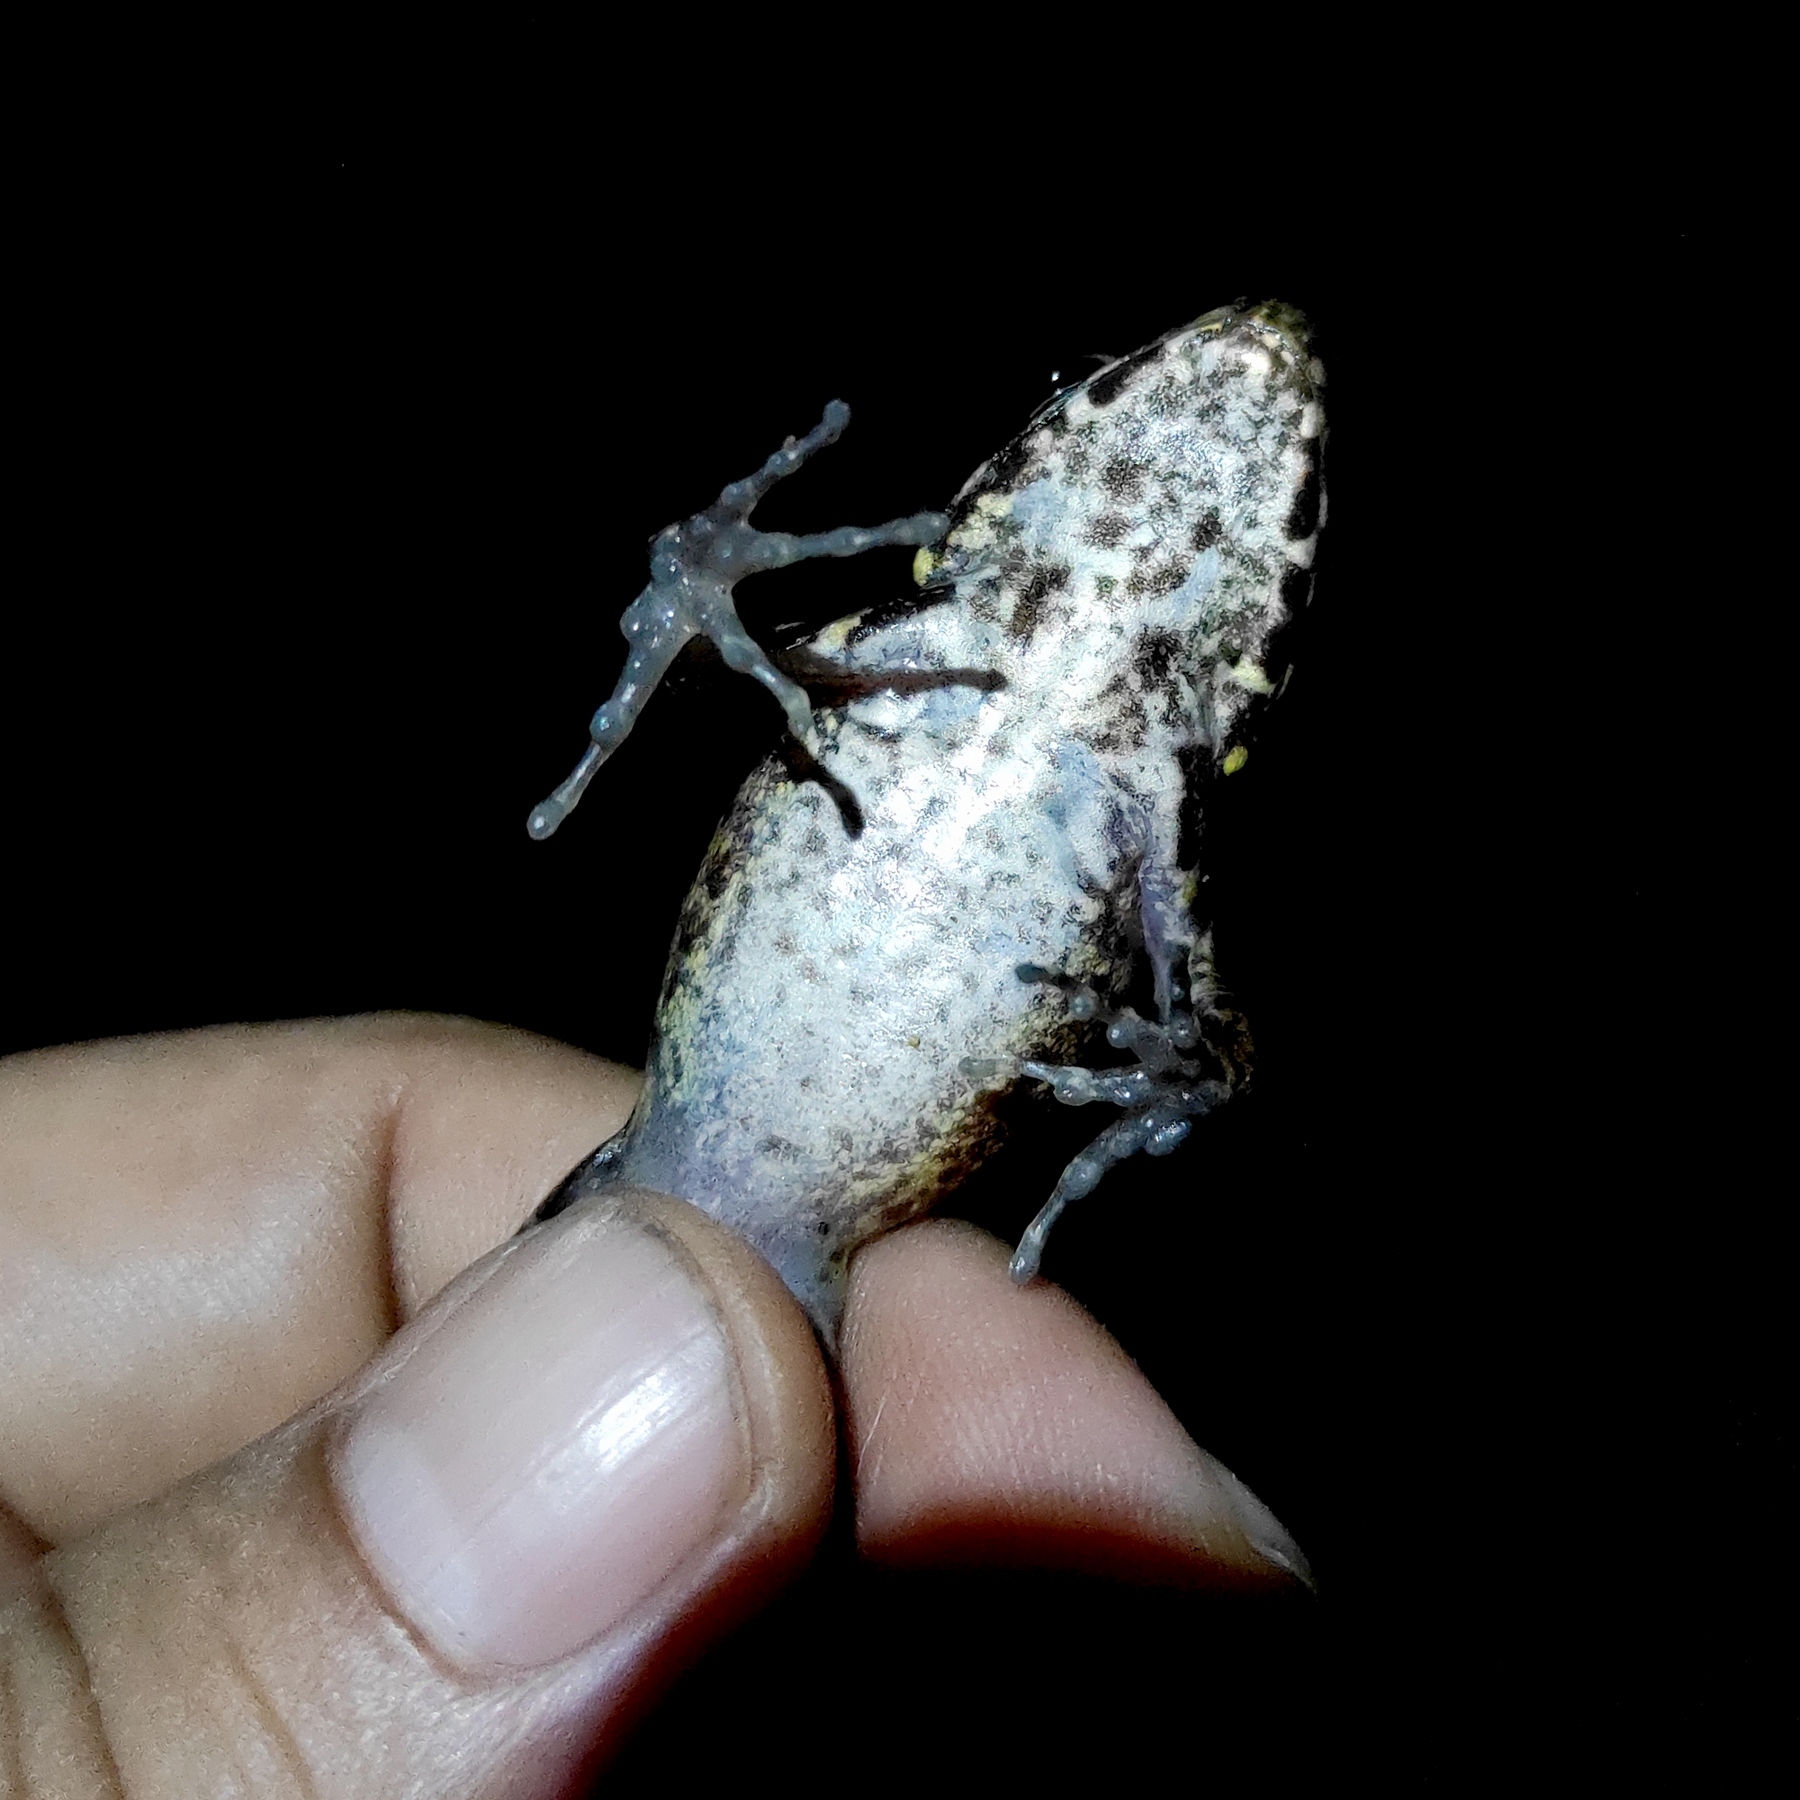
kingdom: Animalia
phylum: Chordata
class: Amphibia
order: Anura
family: Ranidae
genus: Pulchrana
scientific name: Pulchrana baramica
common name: Baram river frog
